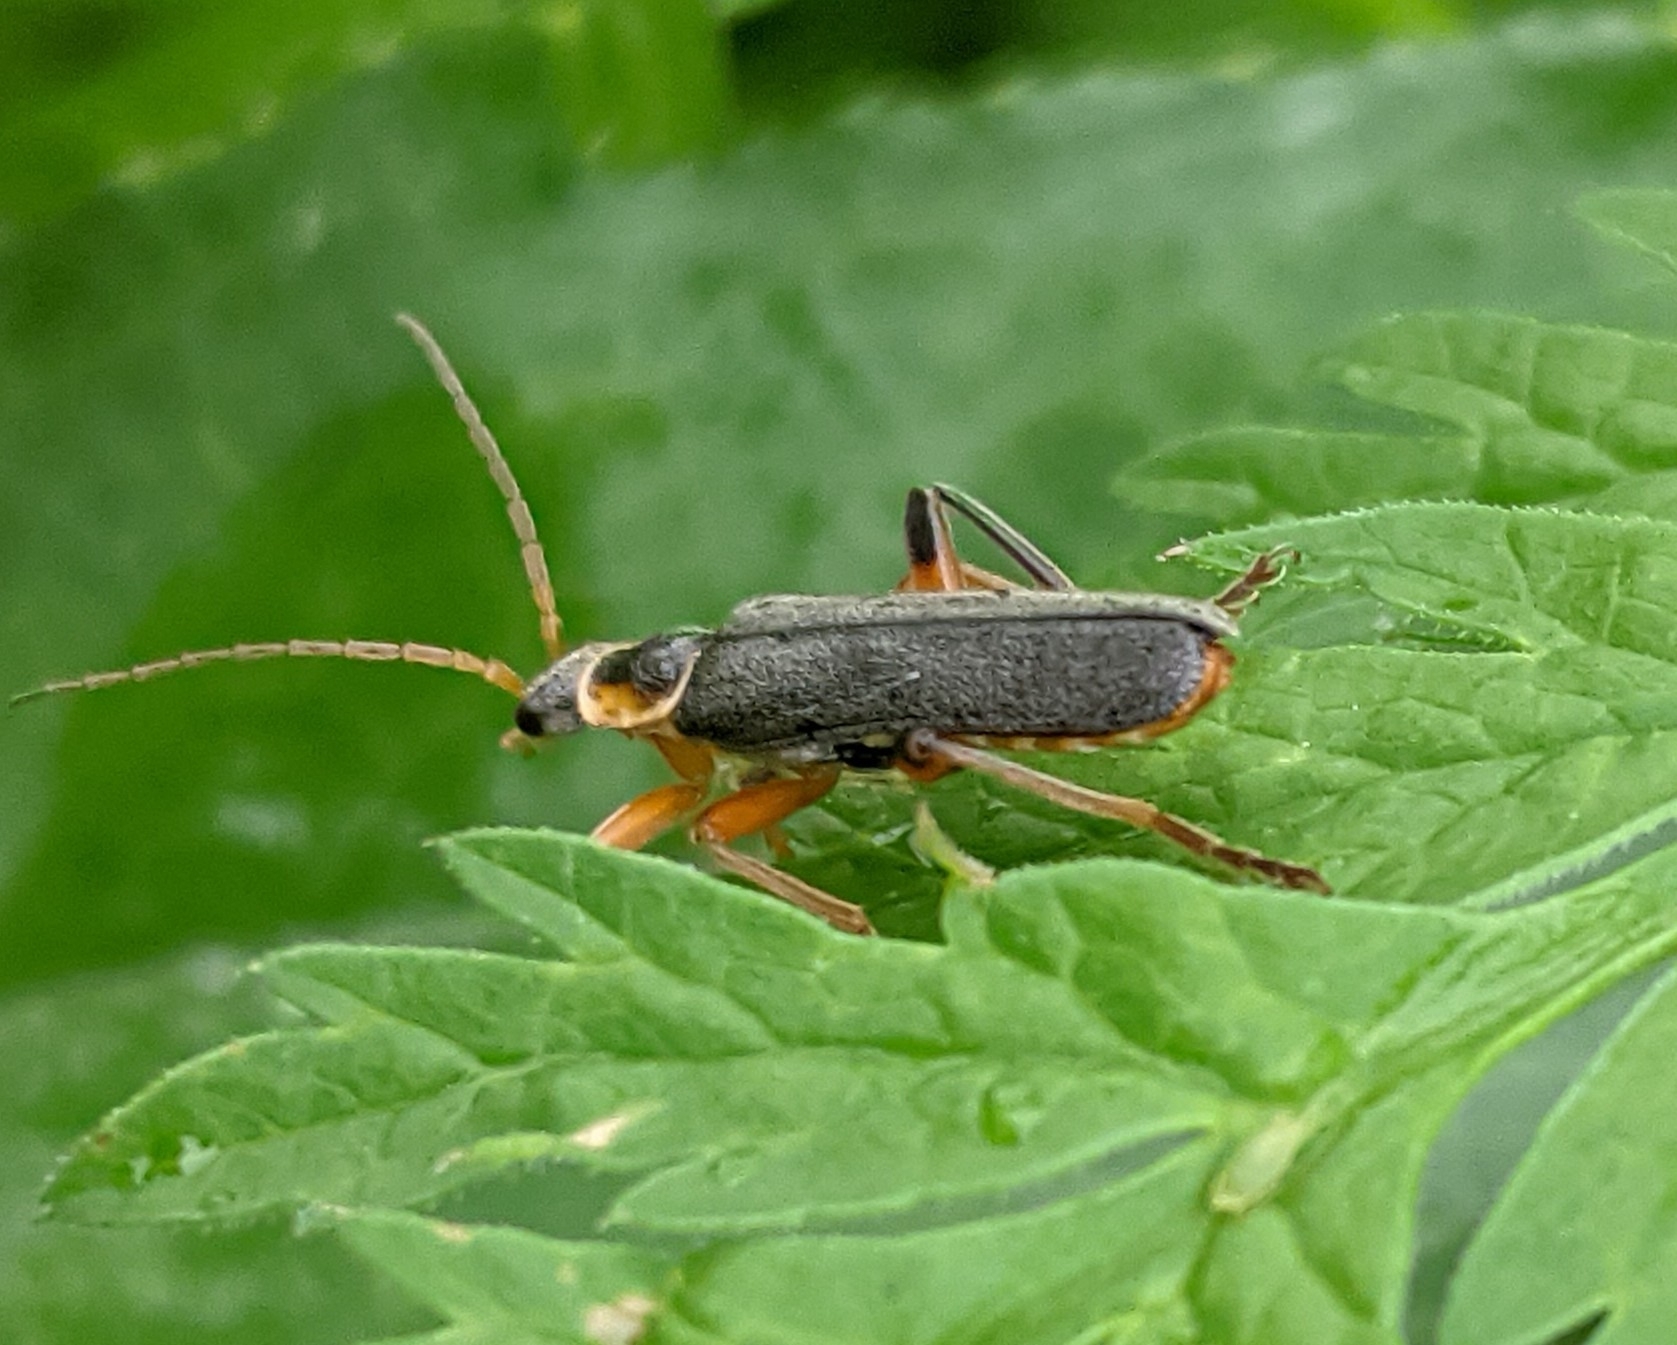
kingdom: Animalia
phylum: Arthropoda
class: Insecta
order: Coleoptera
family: Cantharidae
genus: Cantharis
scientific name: Cantharis nigricans
